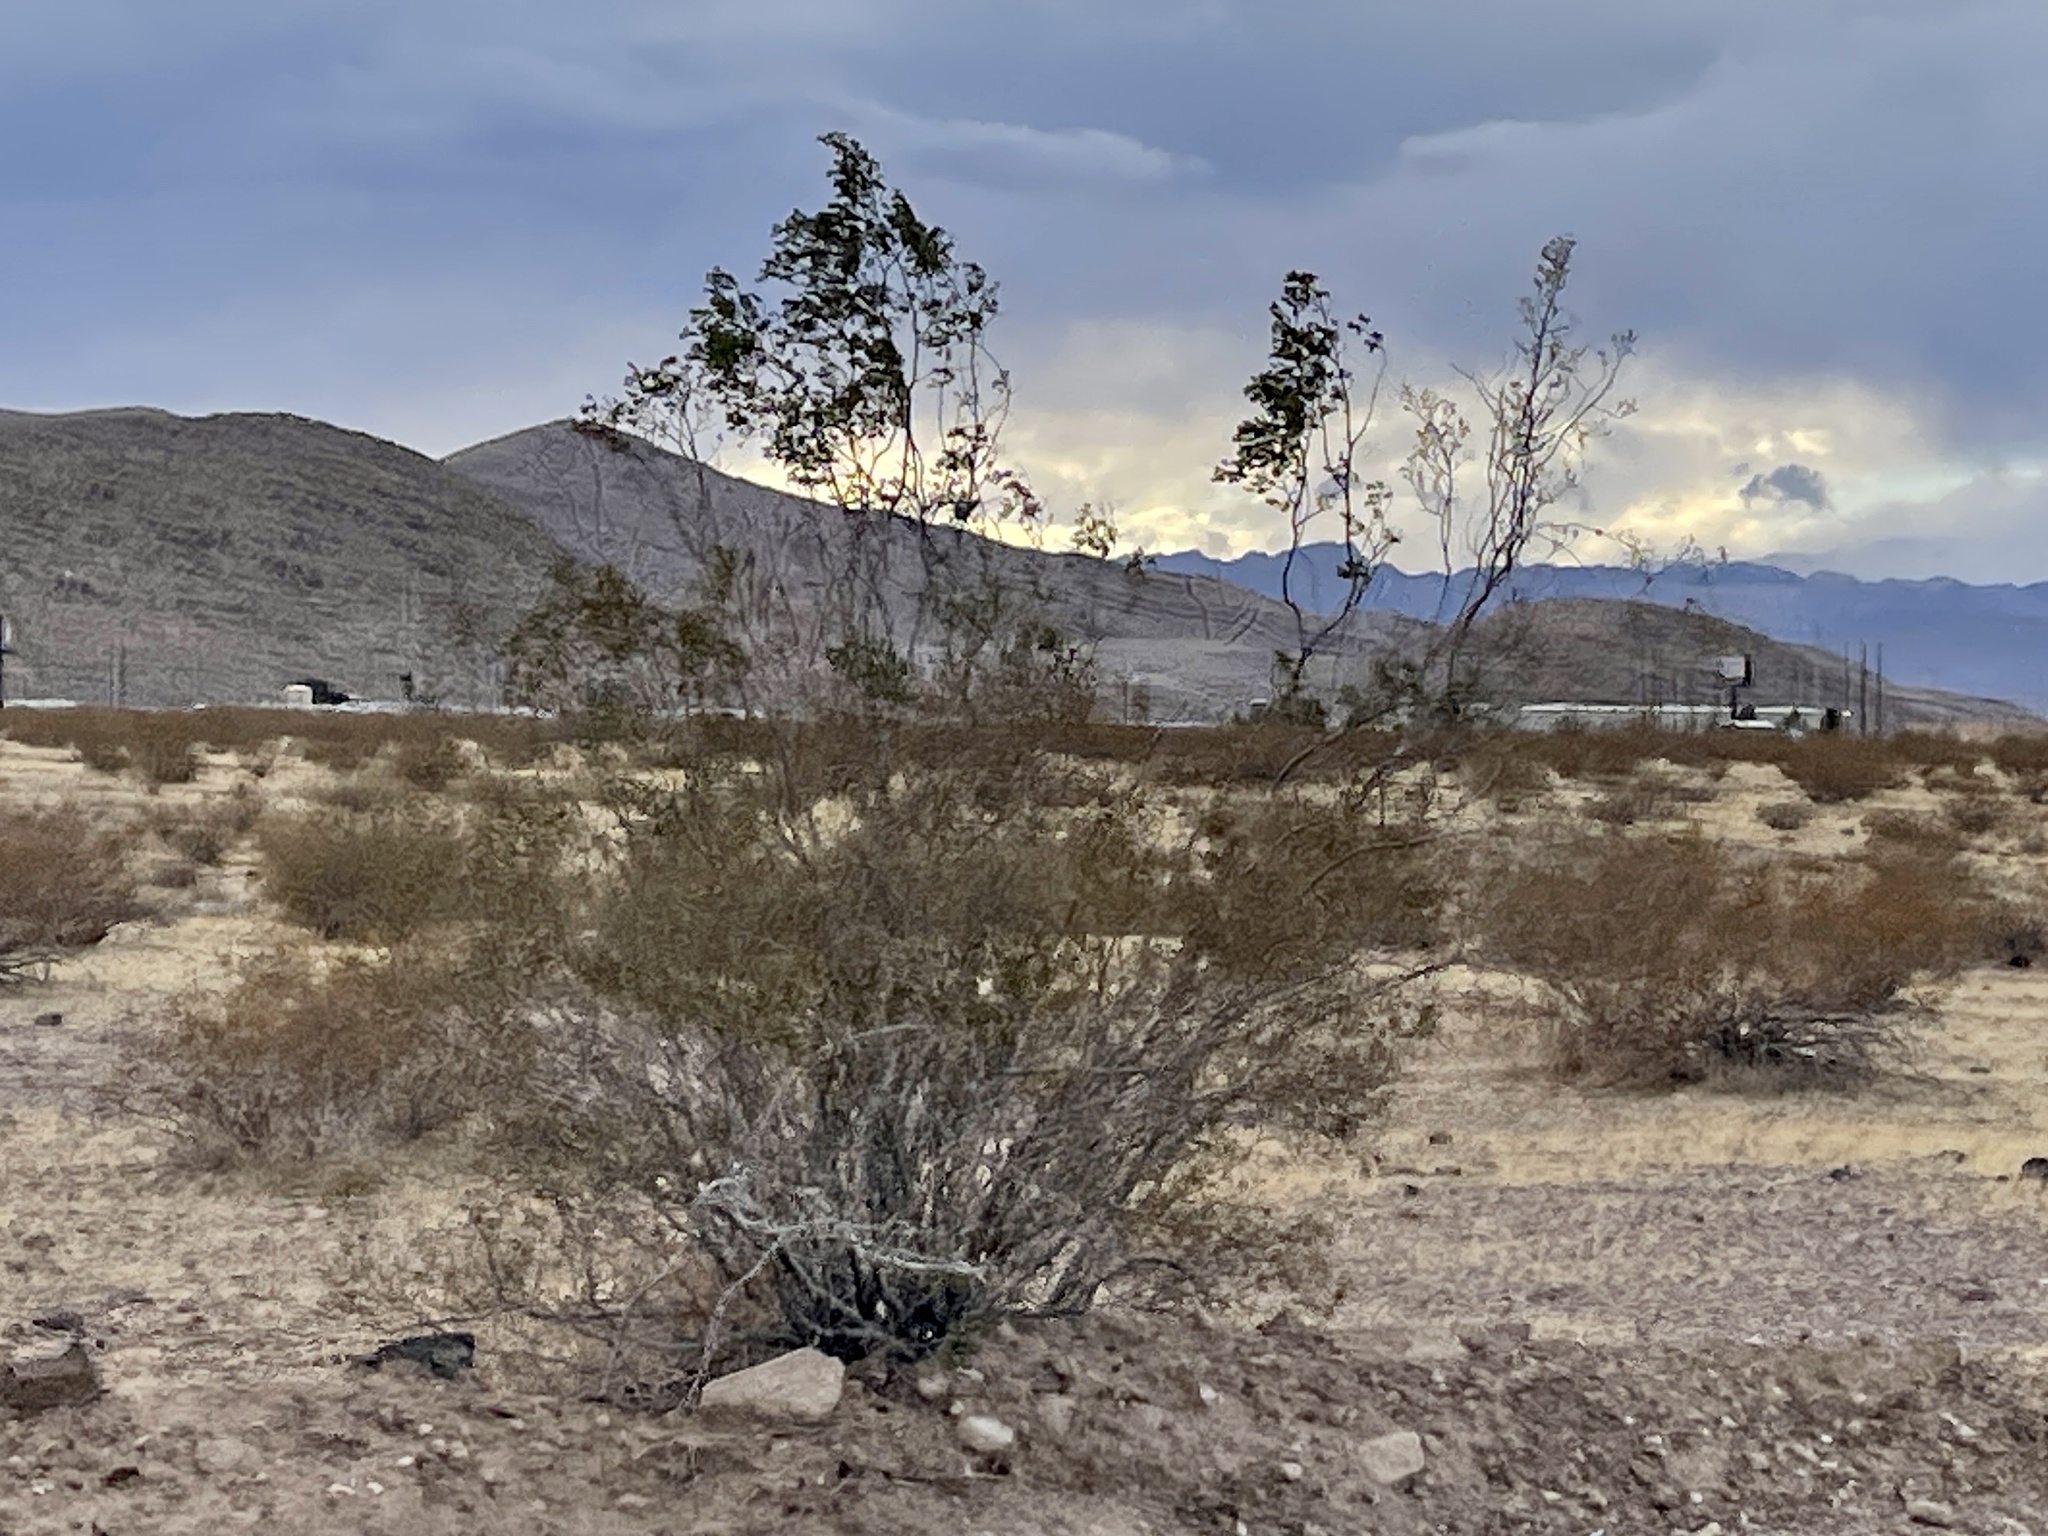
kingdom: Plantae
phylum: Tracheophyta
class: Magnoliopsida
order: Zygophyllales
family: Zygophyllaceae
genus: Larrea
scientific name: Larrea tridentata
